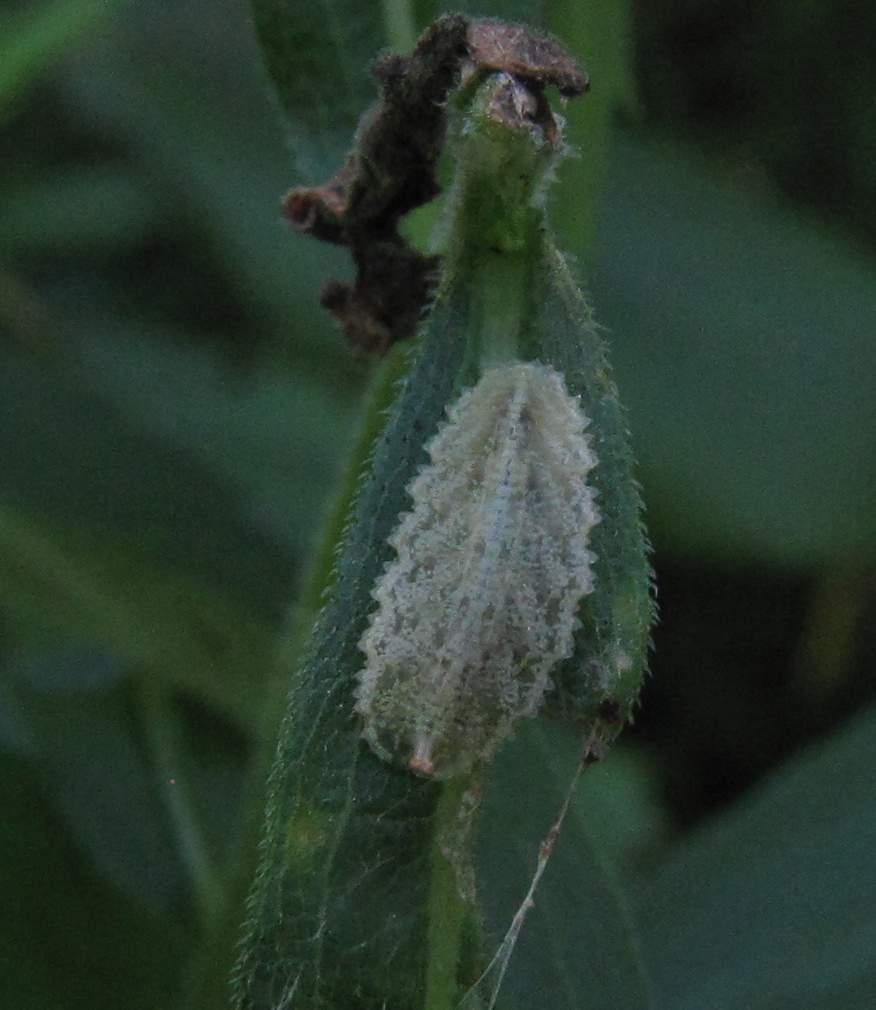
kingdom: Animalia
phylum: Arthropoda
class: Insecta
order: Diptera
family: Syrphidae
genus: Epistrophella
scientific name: Epistrophella emarginata
